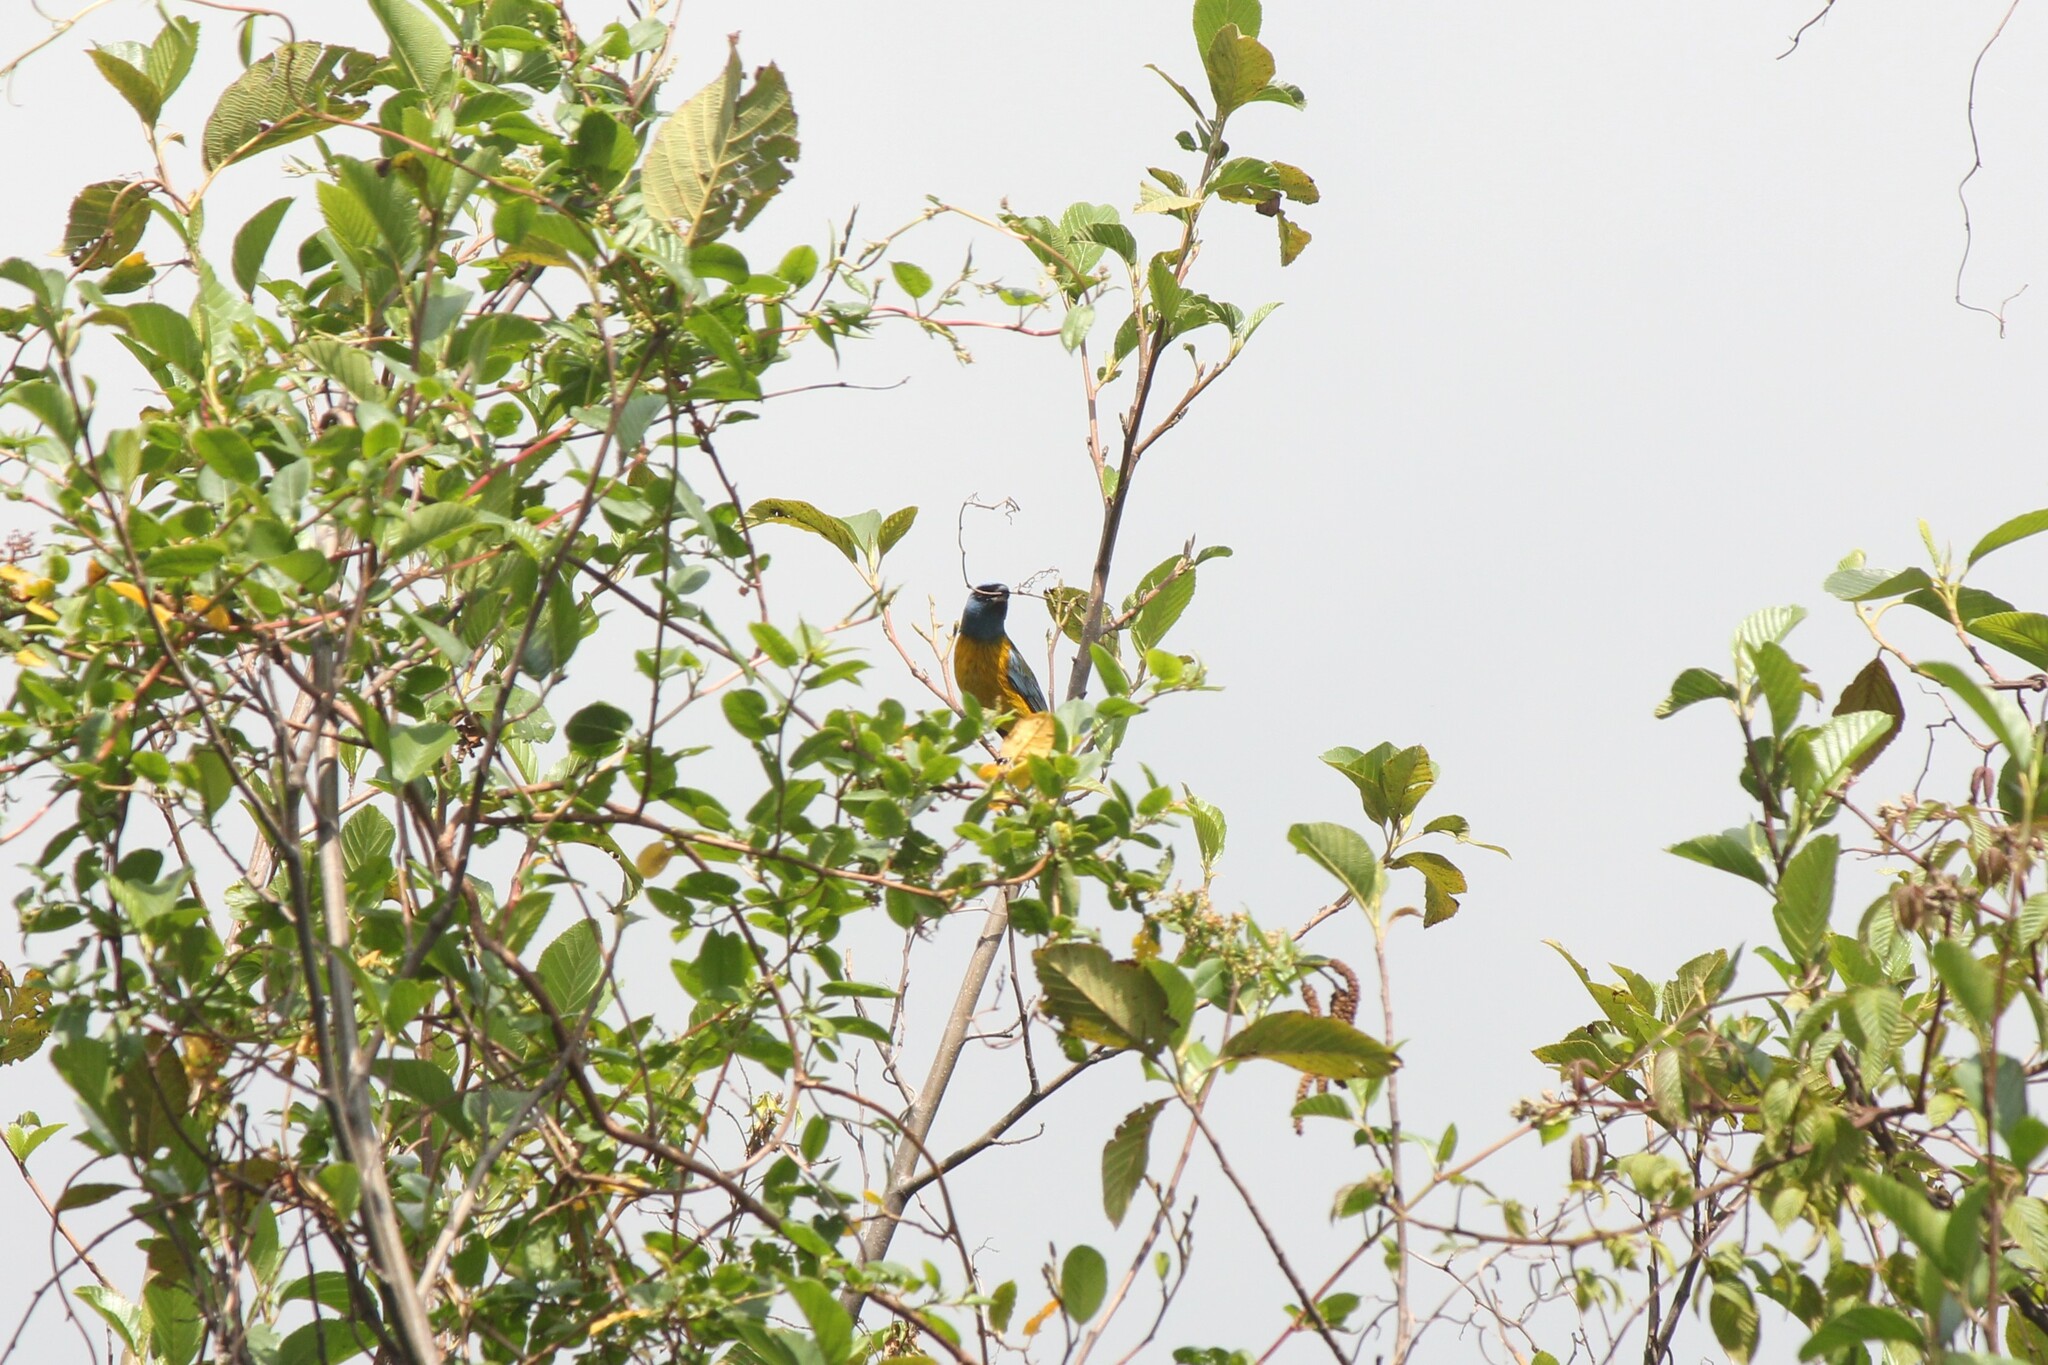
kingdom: Animalia
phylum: Chordata
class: Aves
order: Passeriformes
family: Thraupidae
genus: Rauenia
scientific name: Rauenia bonariensis
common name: Blue-and-yellow tanager
